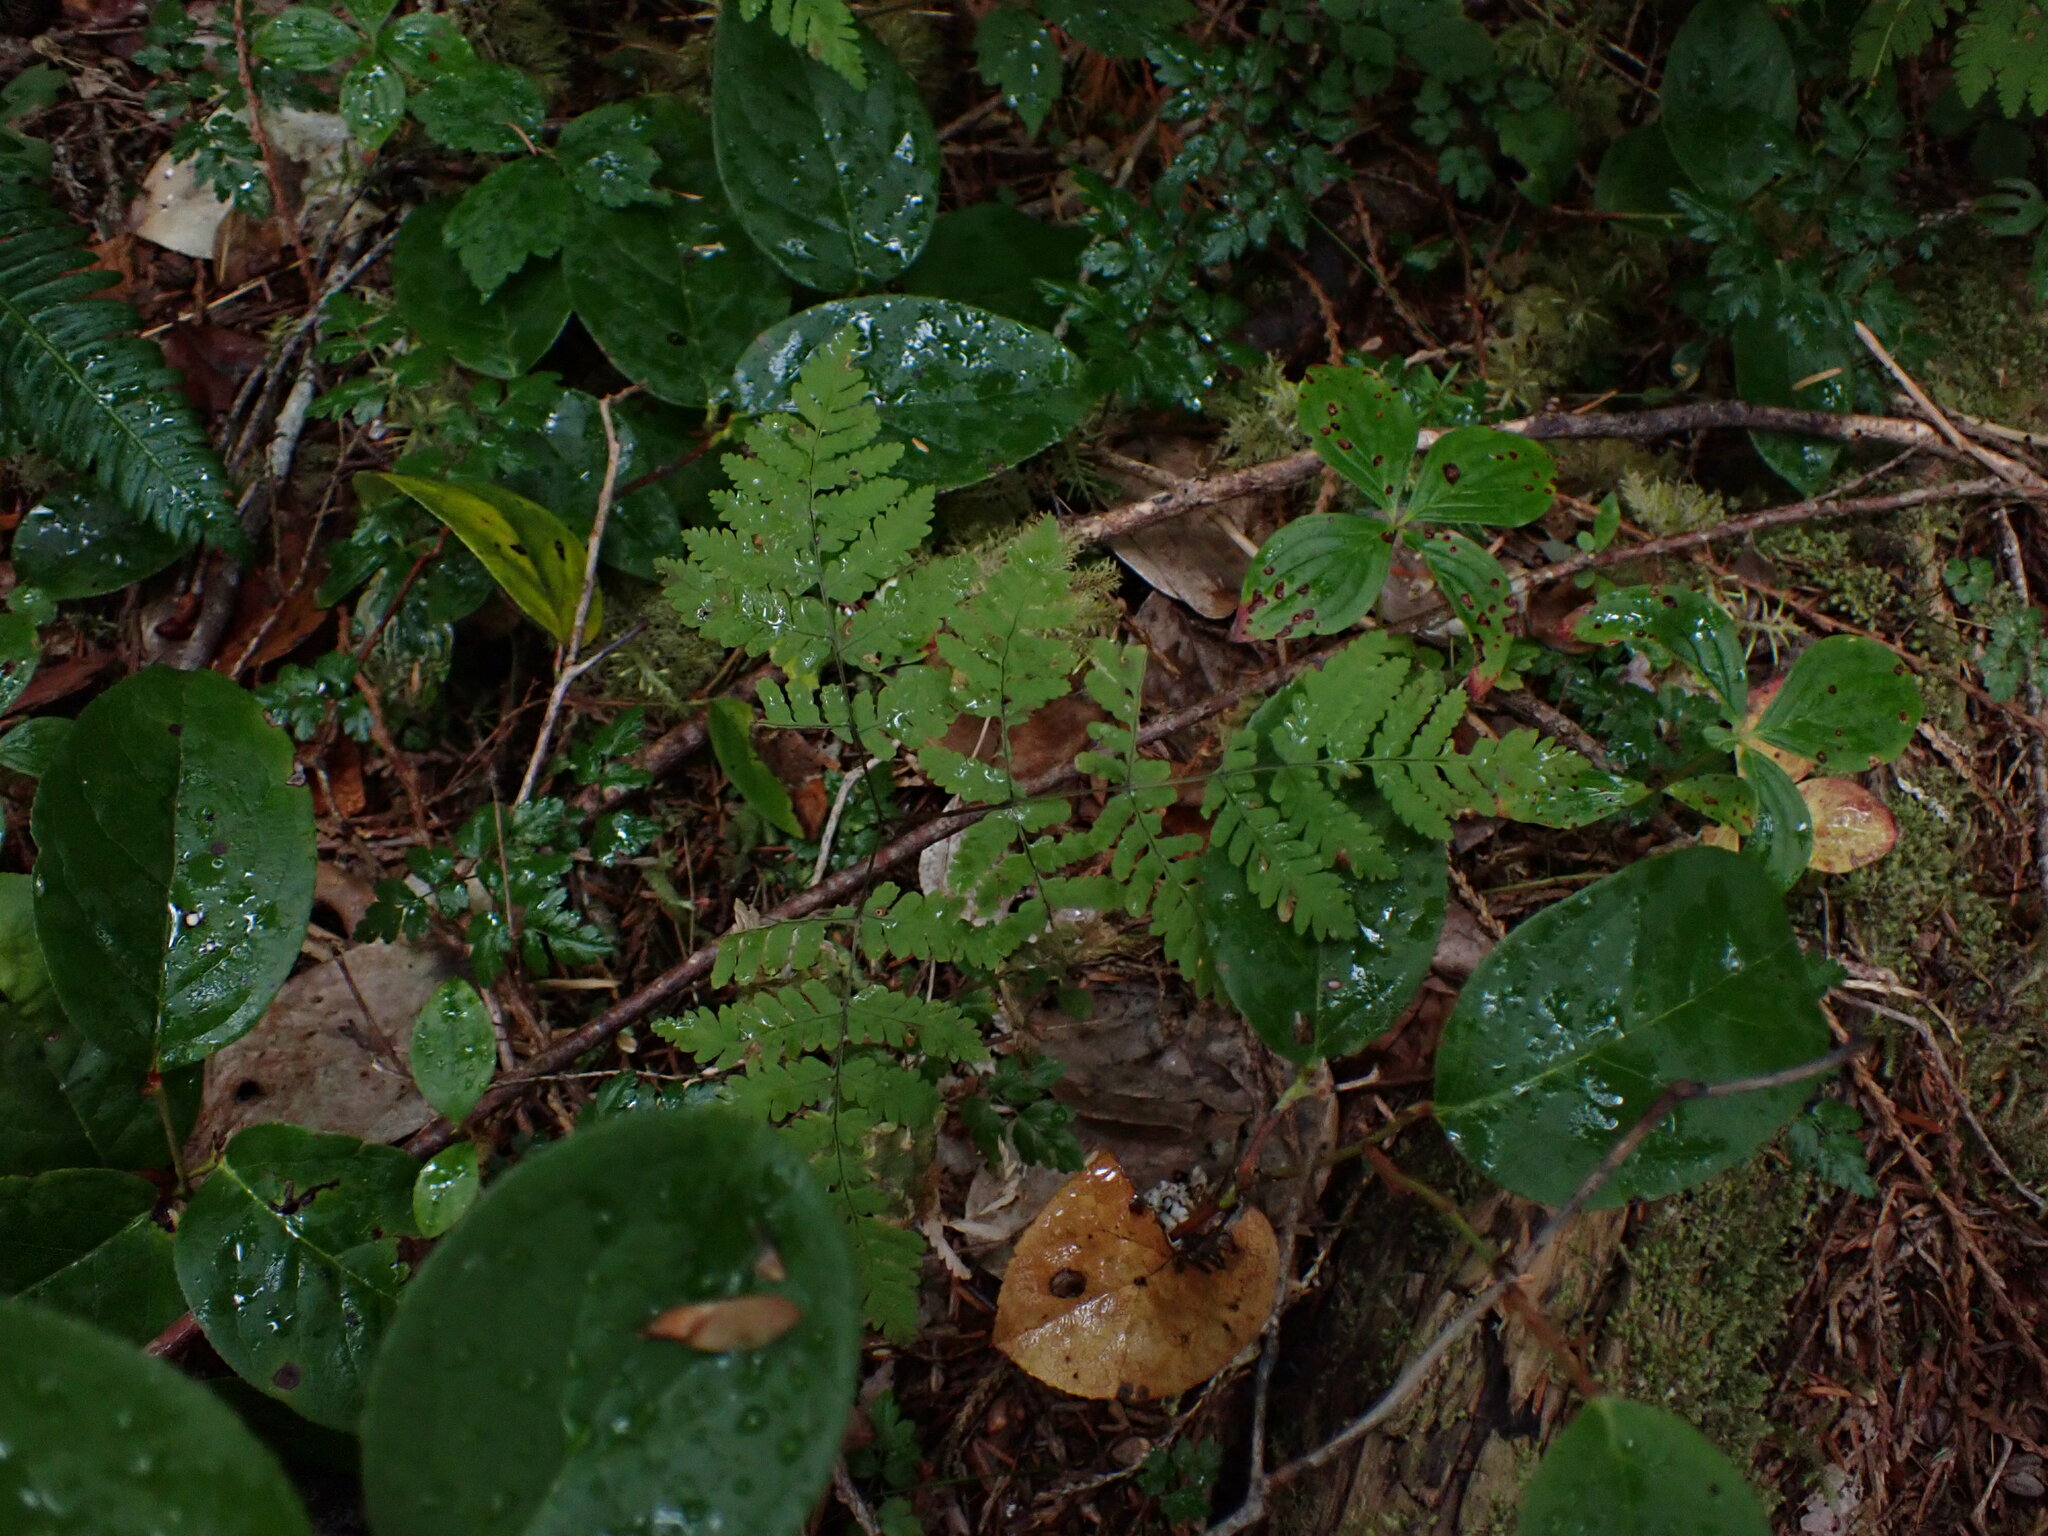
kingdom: Plantae
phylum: Tracheophyta
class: Polypodiopsida
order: Polypodiales
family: Cystopteridaceae
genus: Gymnocarpium
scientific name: Gymnocarpium disjunctum
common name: Western oak fern
